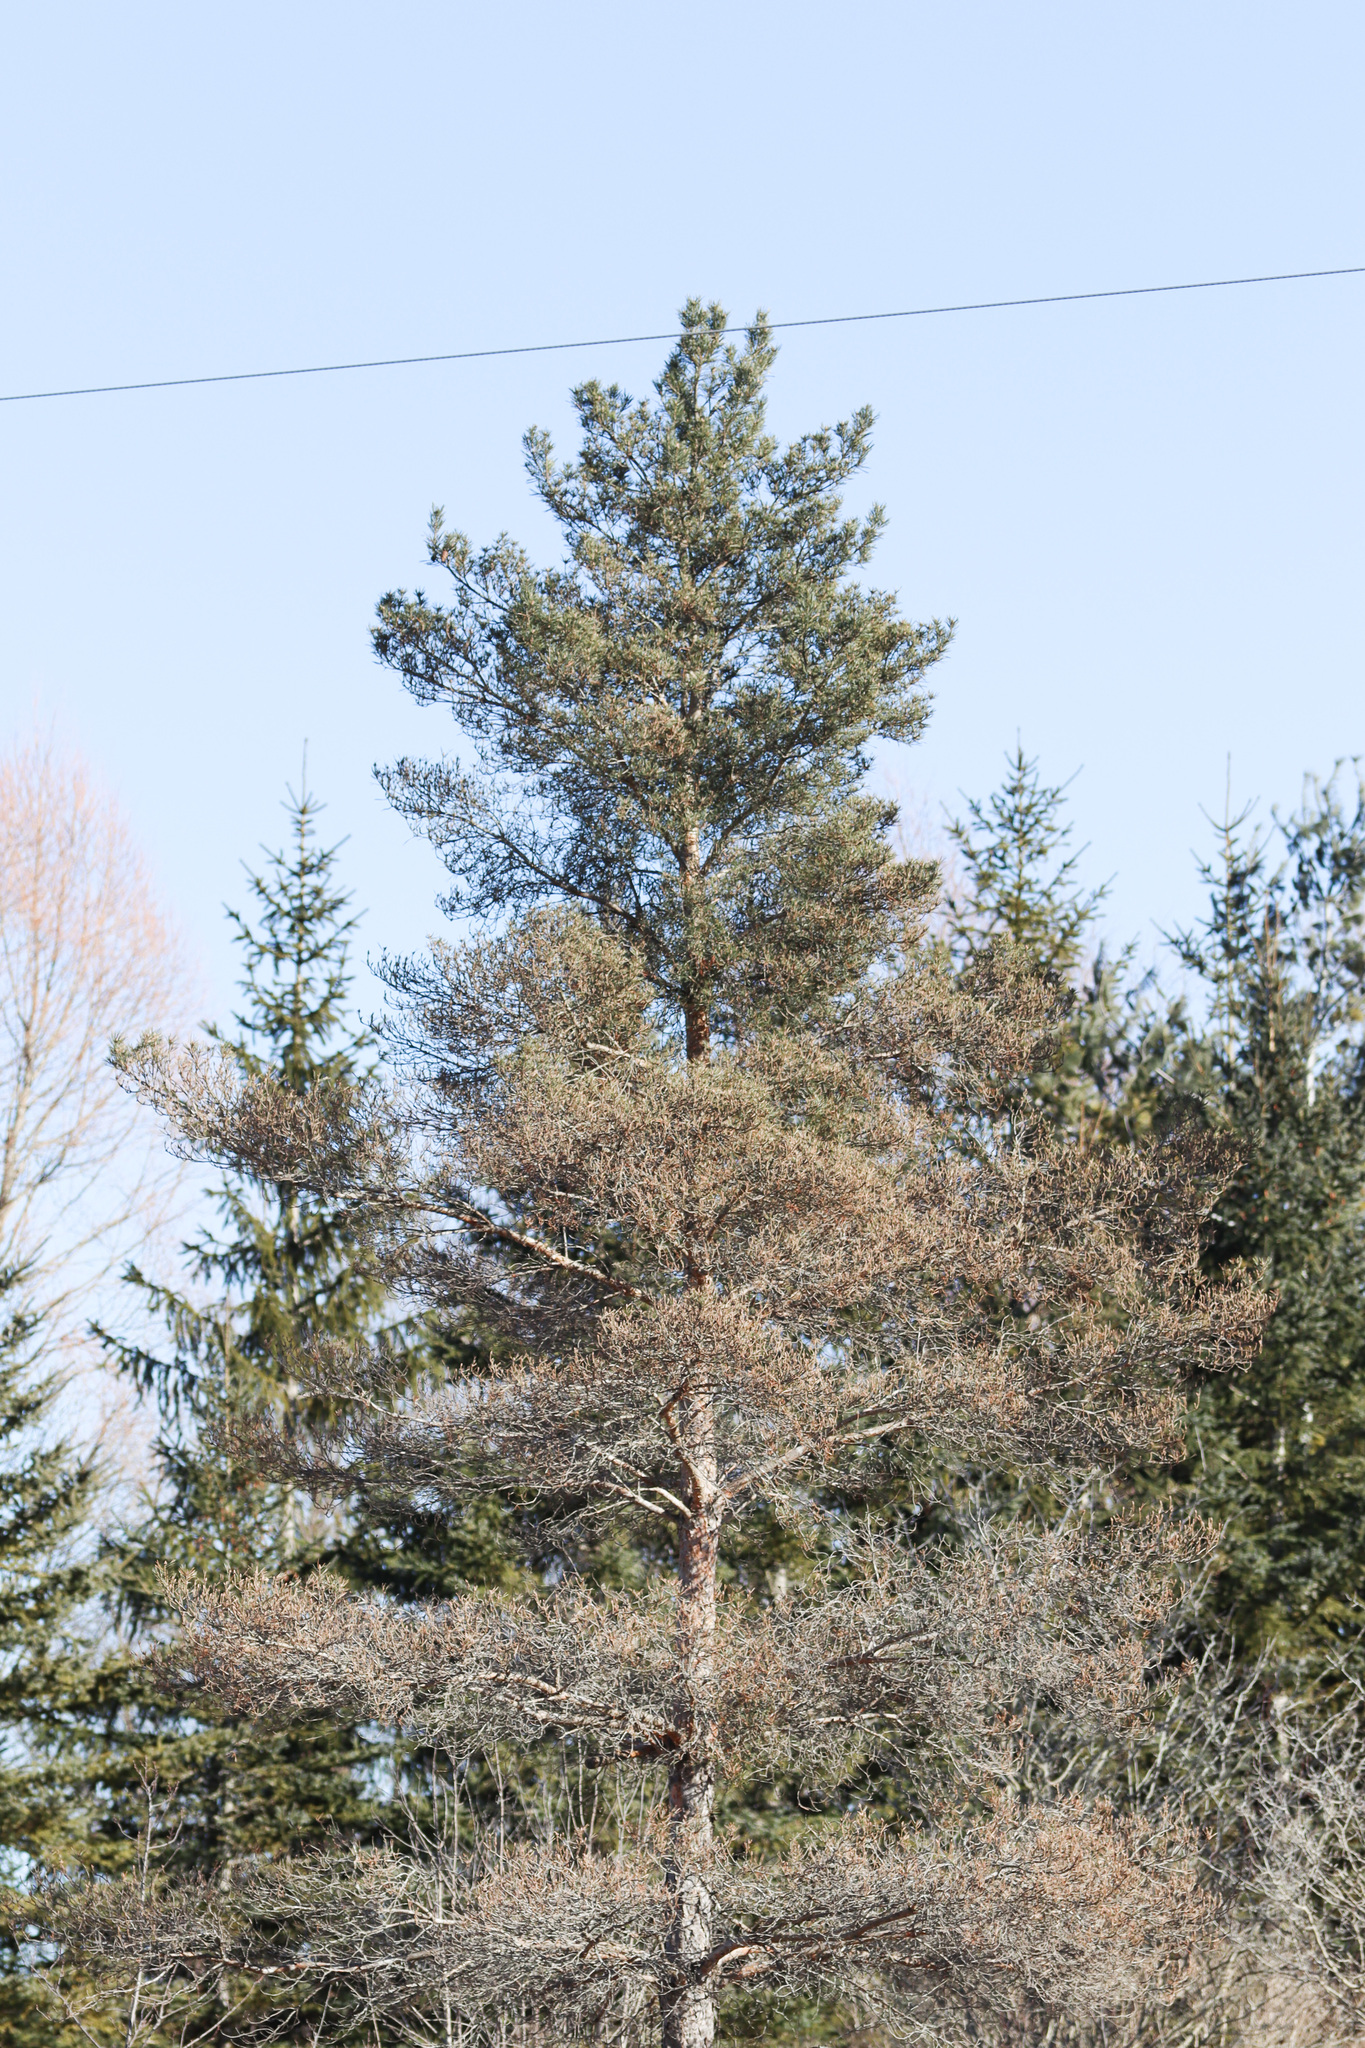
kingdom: Plantae
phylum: Tracheophyta
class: Pinopsida
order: Pinales
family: Pinaceae
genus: Pinus
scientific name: Pinus sylvestris
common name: Scots pine
